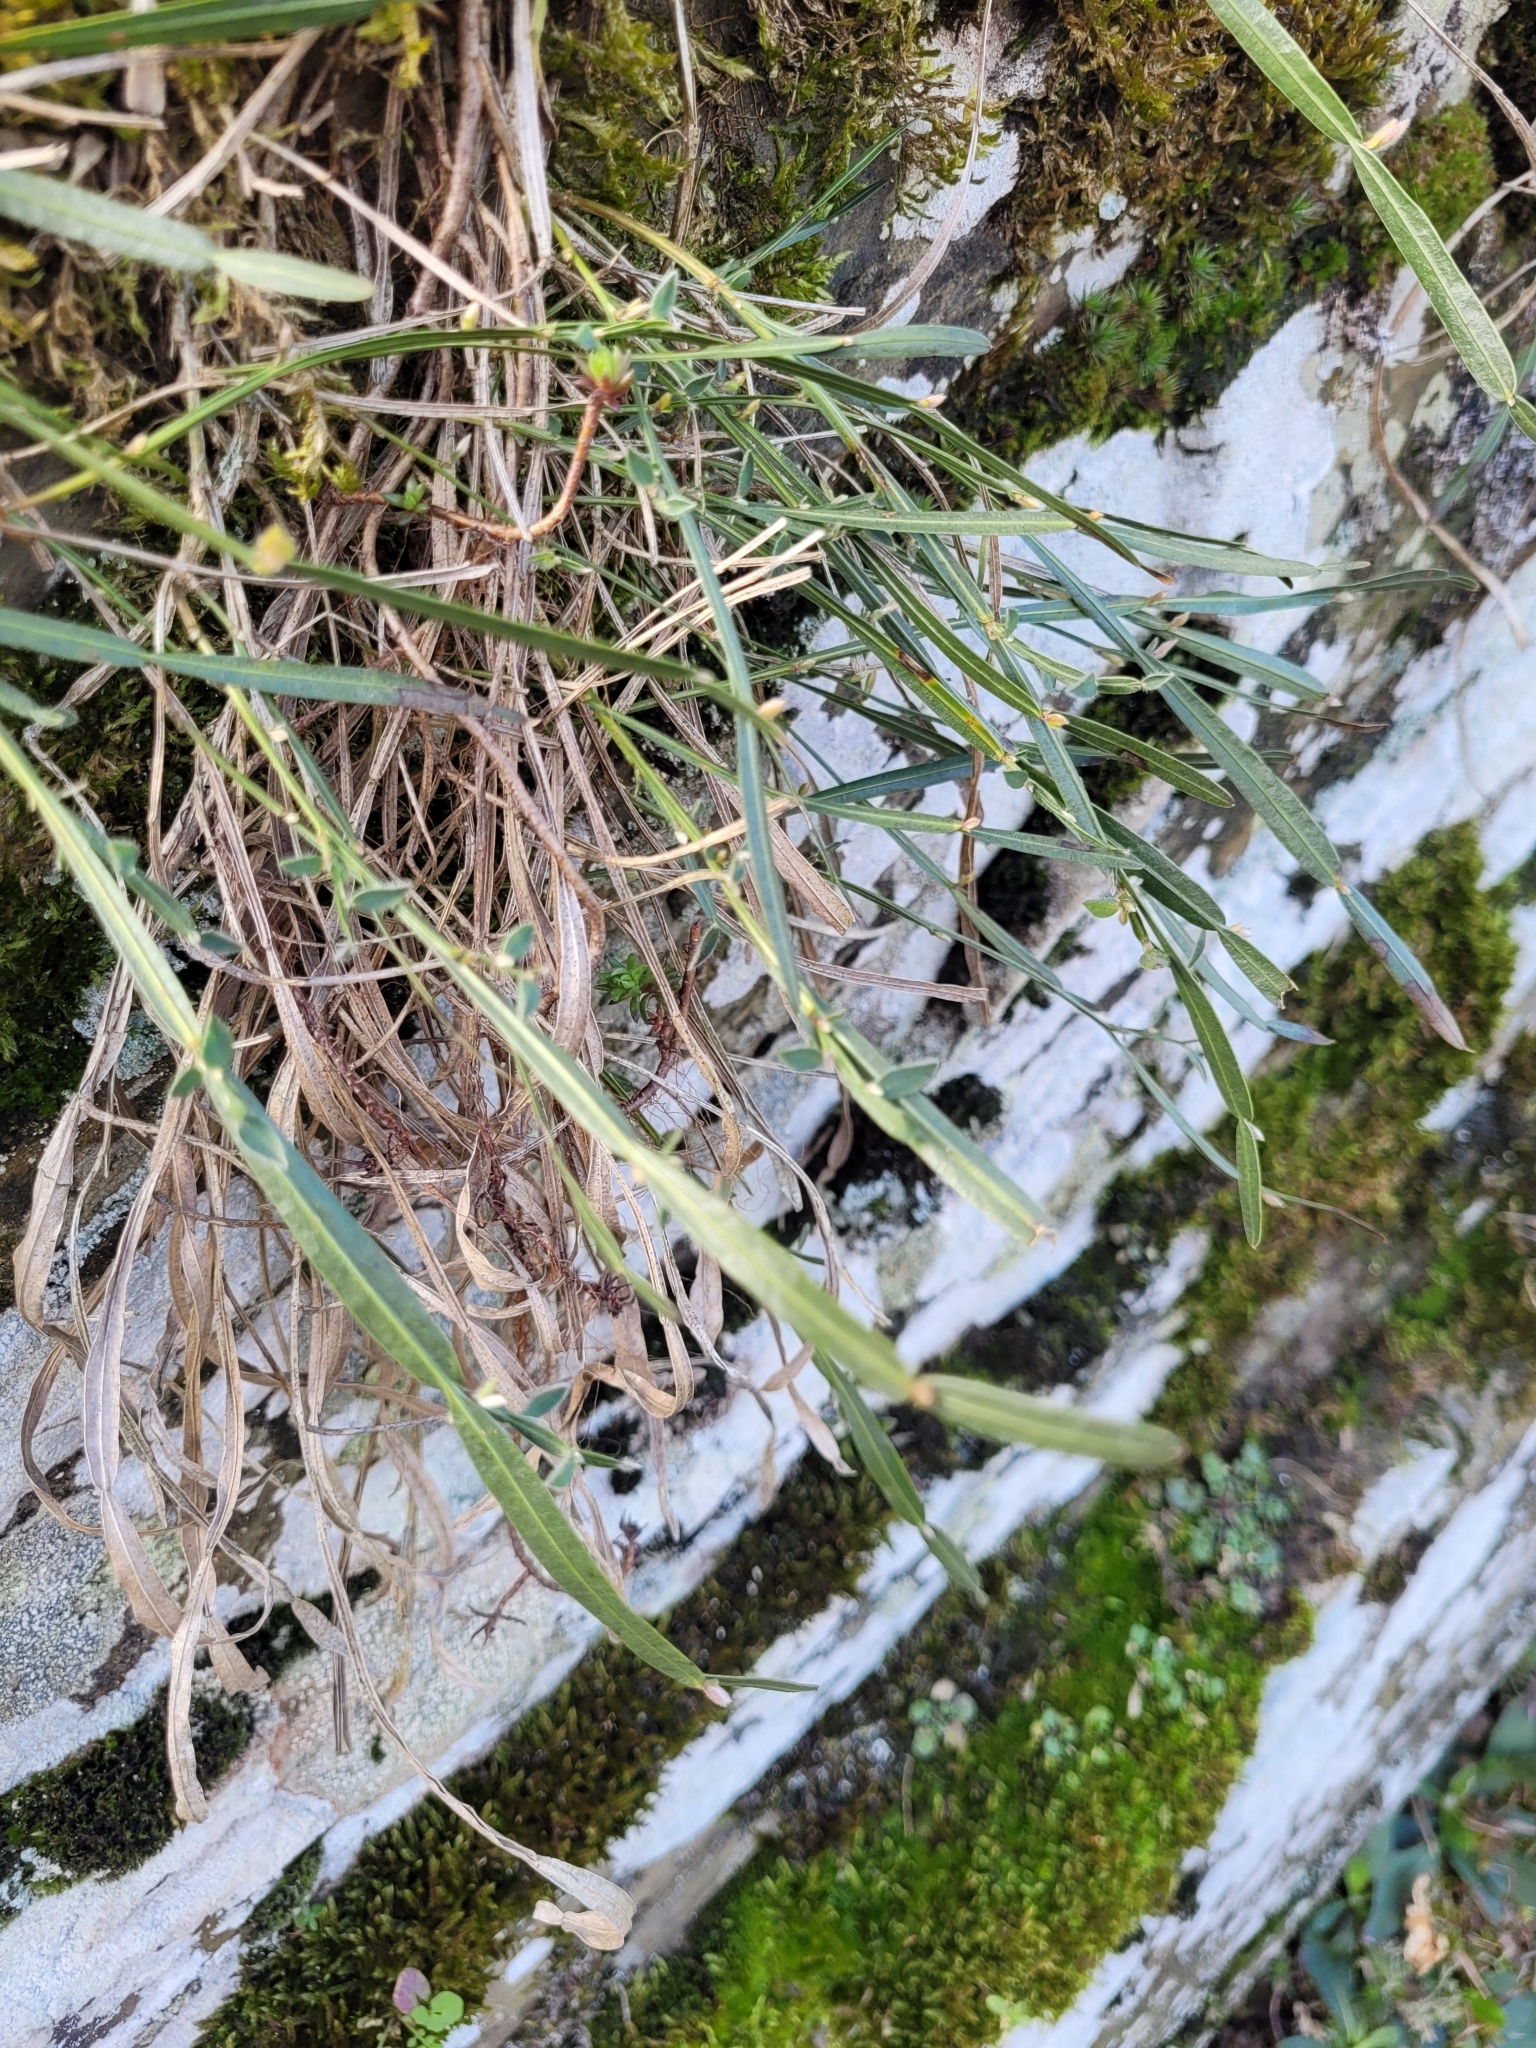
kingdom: Plantae
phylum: Tracheophyta
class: Magnoliopsida
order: Fabales
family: Fabaceae
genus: Genista
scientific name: Genista sagittalis
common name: Winged greenweed
